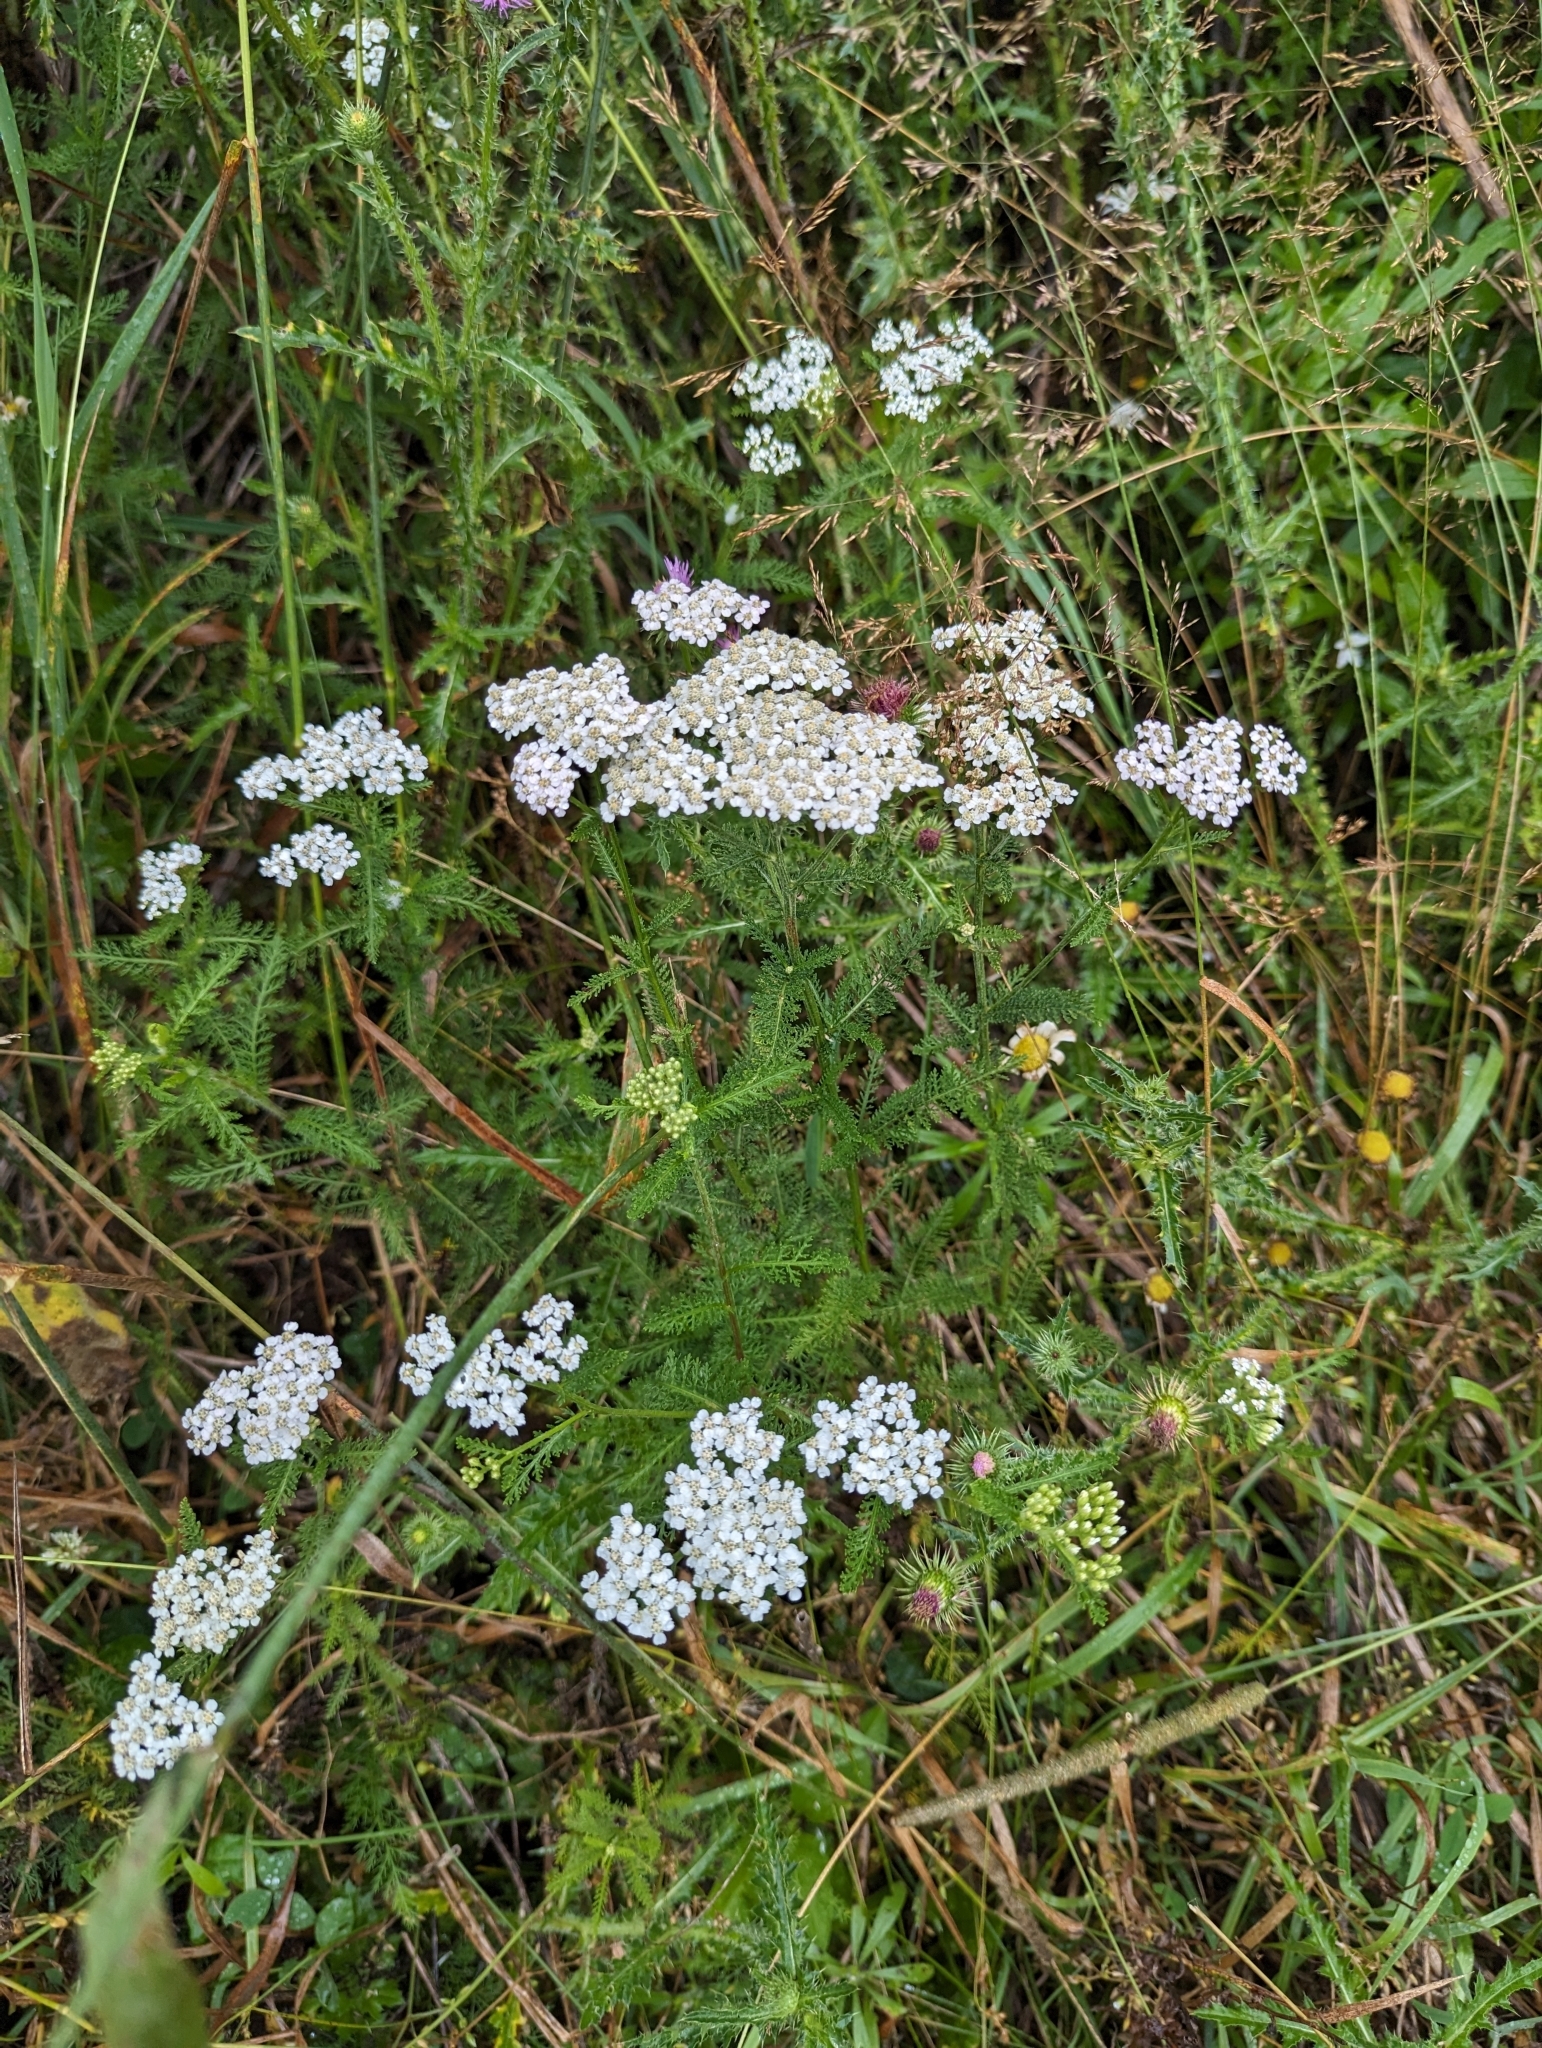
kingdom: Plantae
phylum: Tracheophyta
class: Magnoliopsida
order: Asterales
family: Asteraceae
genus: Achillea
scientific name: Achillea millefolium
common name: Yarrow
